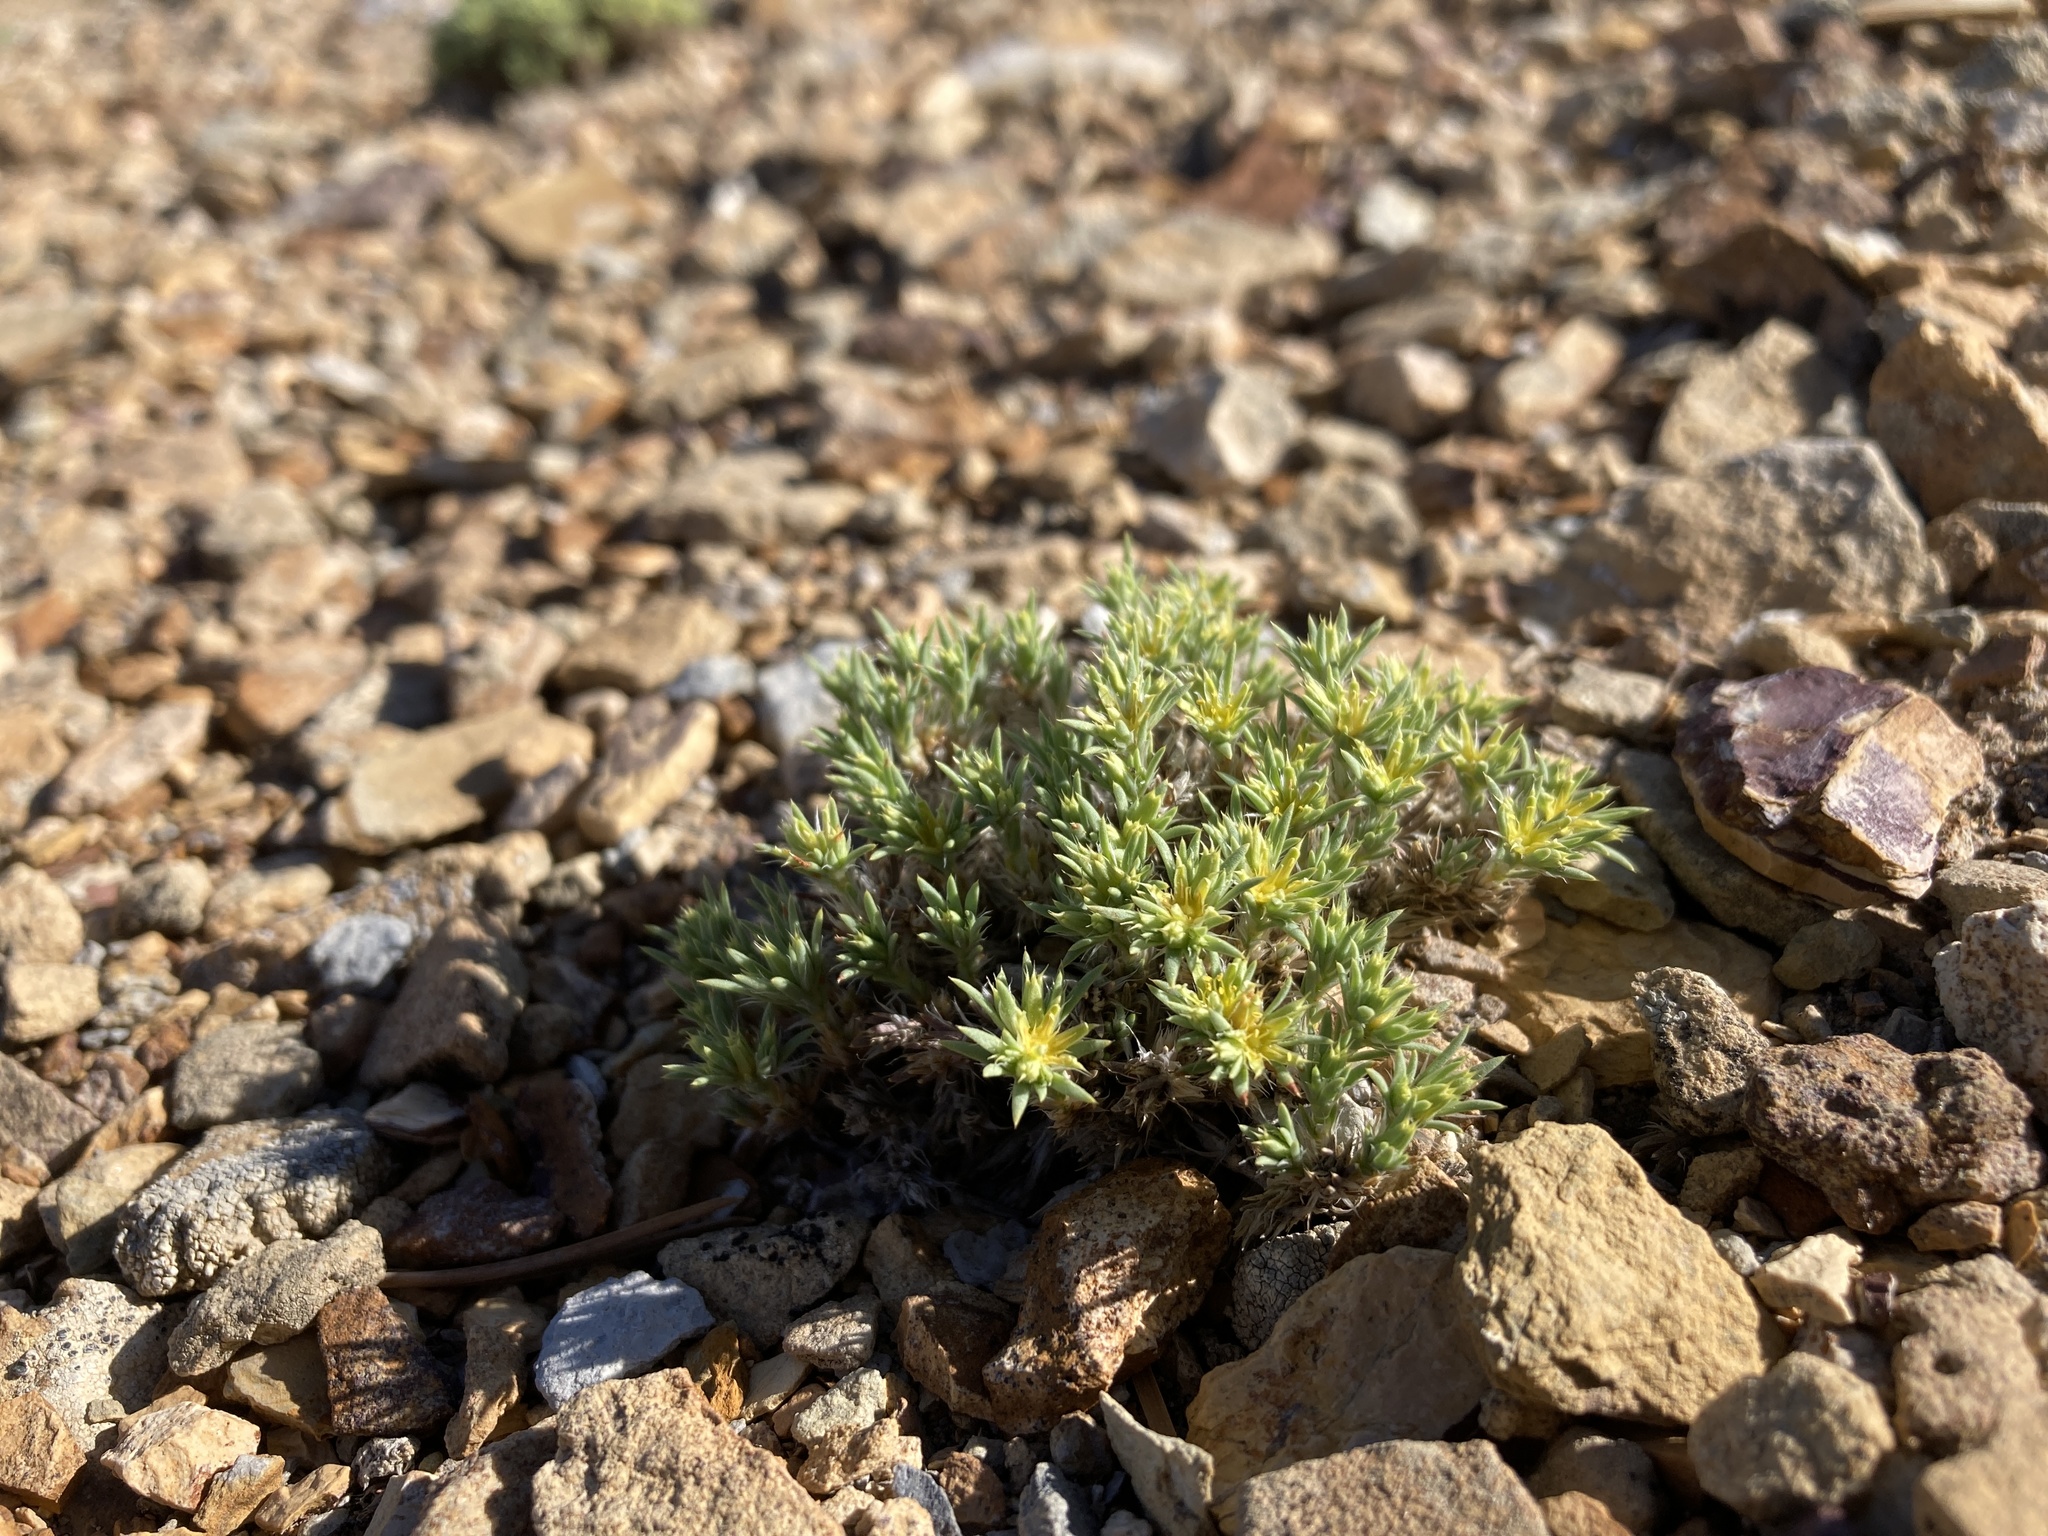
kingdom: Plantae
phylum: Tracheophyta
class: Magnoliopsida
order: Caryophyllales
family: Caryophyllaceae
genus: Paronychia
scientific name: Paronychia sessiliflora
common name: Creeping nailwort
